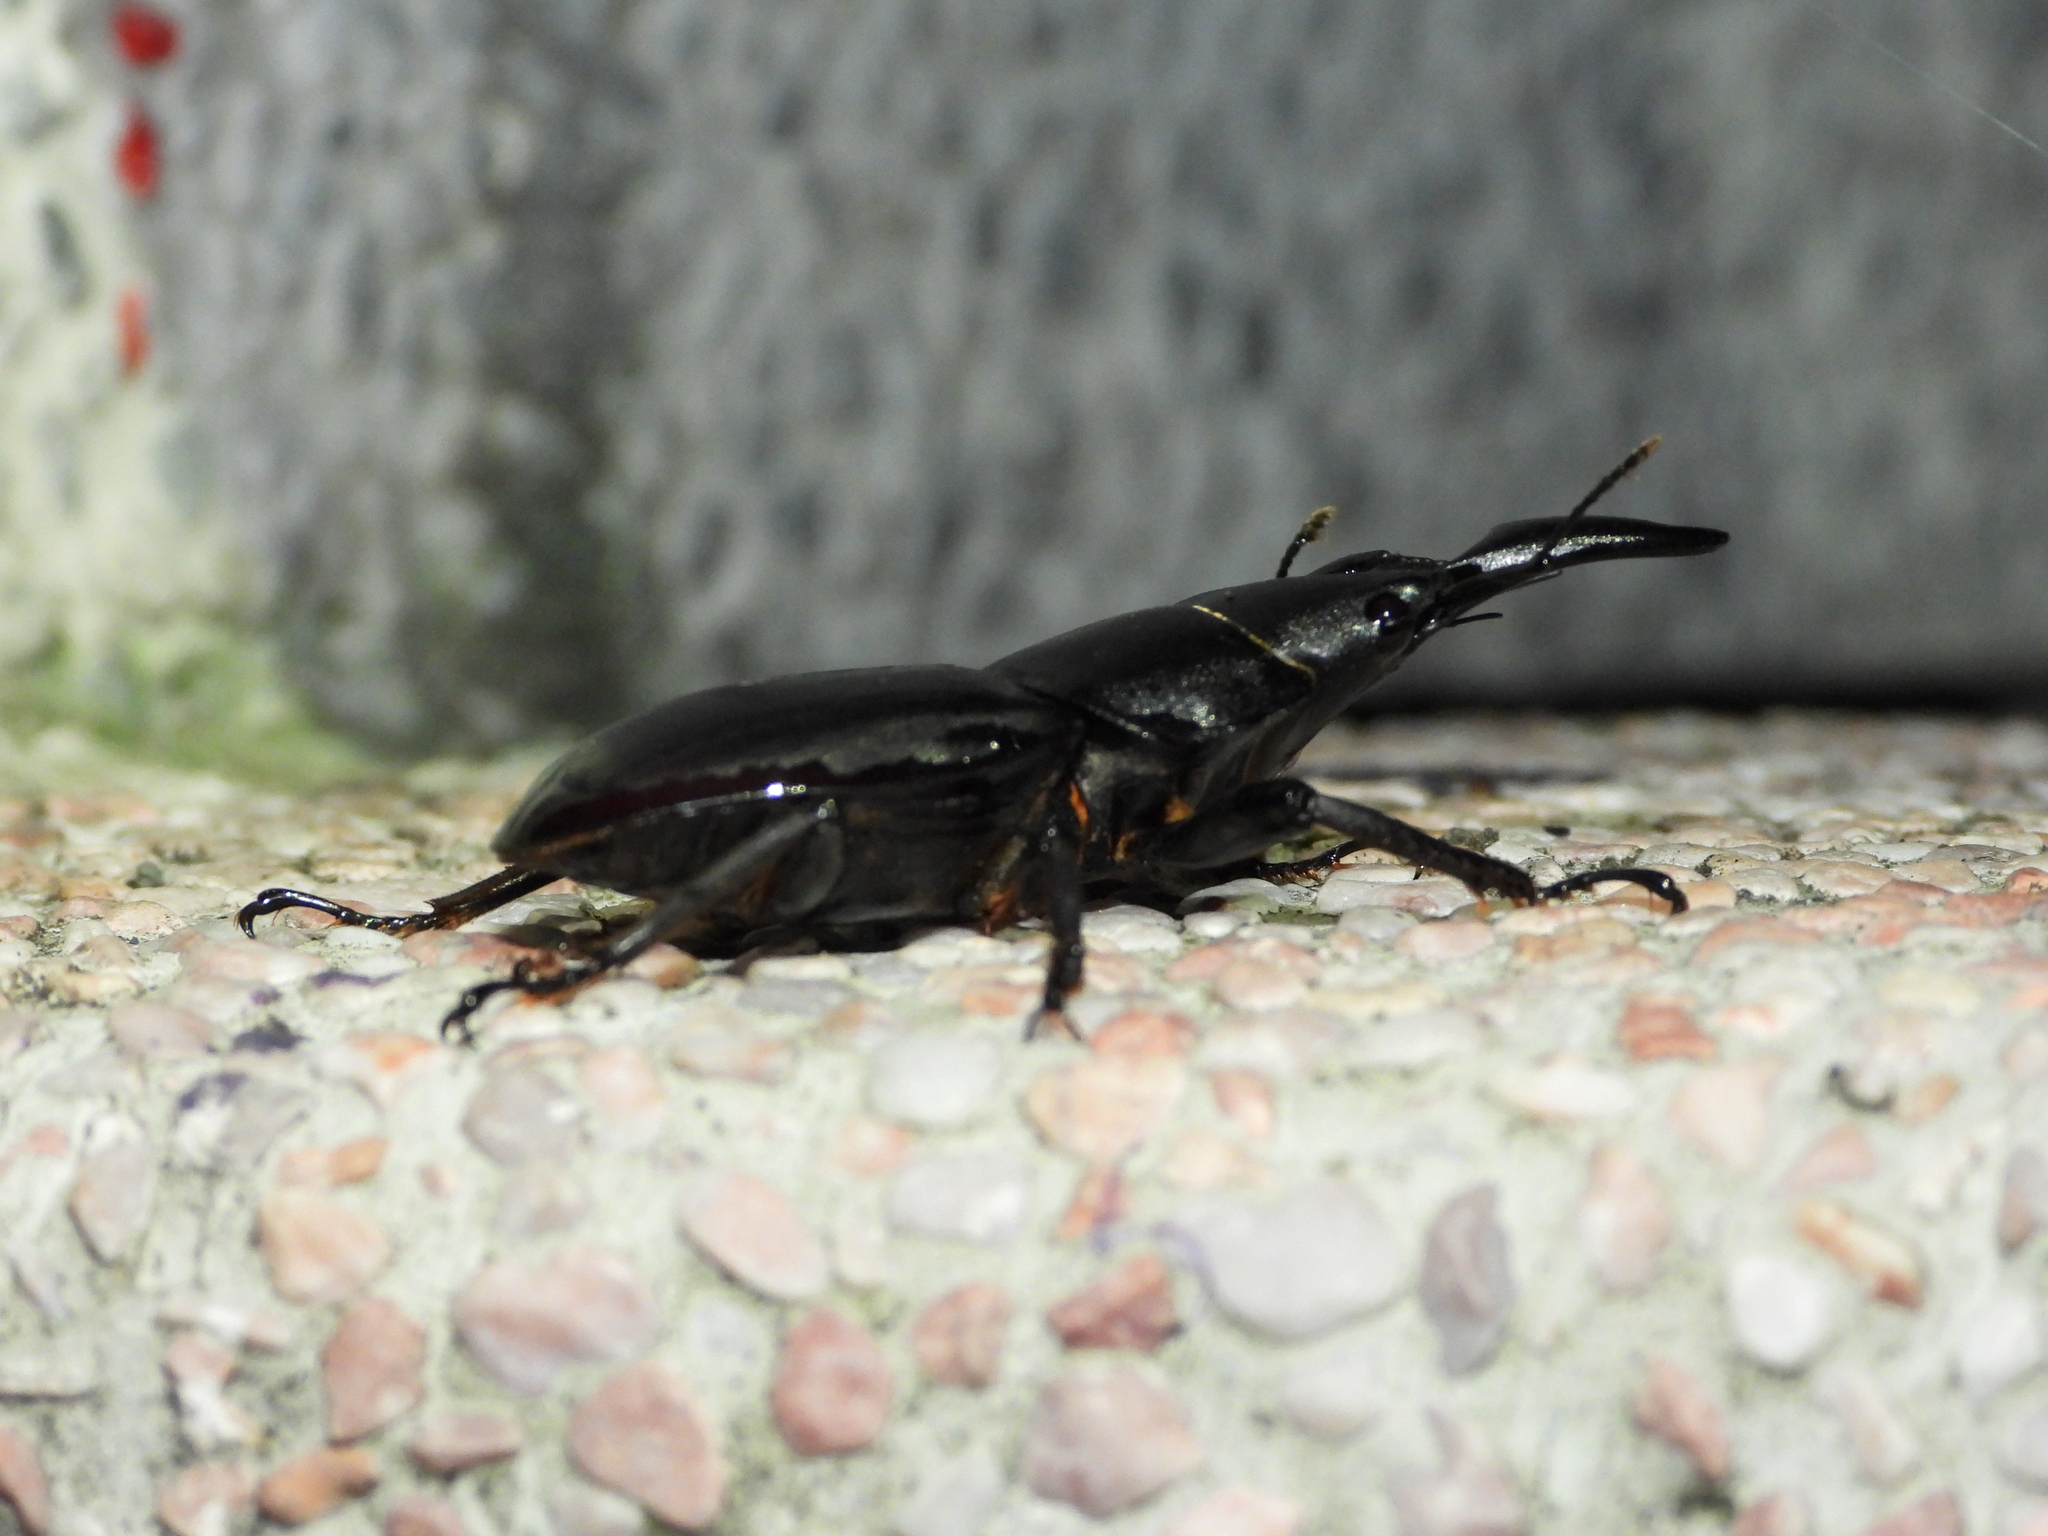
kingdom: Animalia
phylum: Arthropoda
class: Insecta
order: Coleoptera
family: Lucanidae
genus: Serrognathus
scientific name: Serrognathus titanus
